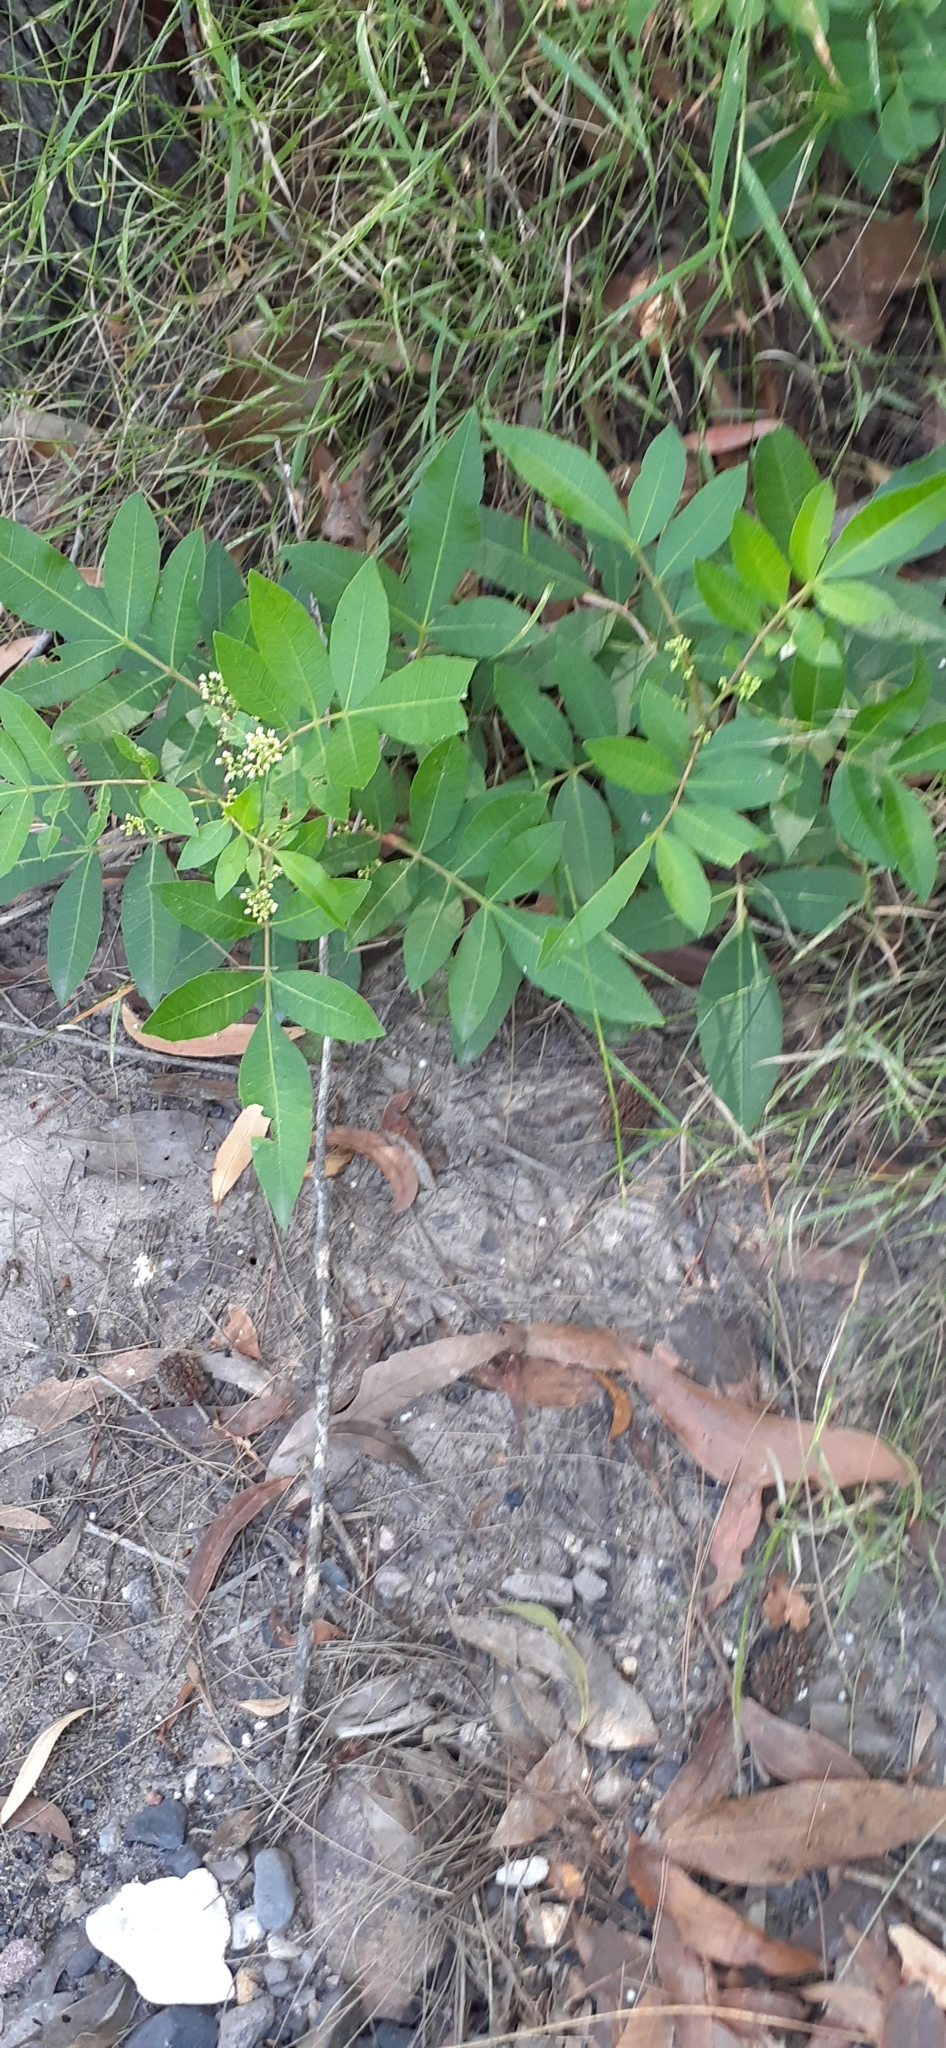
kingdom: Plantae
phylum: Tracheophyta
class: Magnoliopsida
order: Sapindales
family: Anacardiaceae
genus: Schinus
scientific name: Schinus terebinthifolia
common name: Brazilian peppertree
